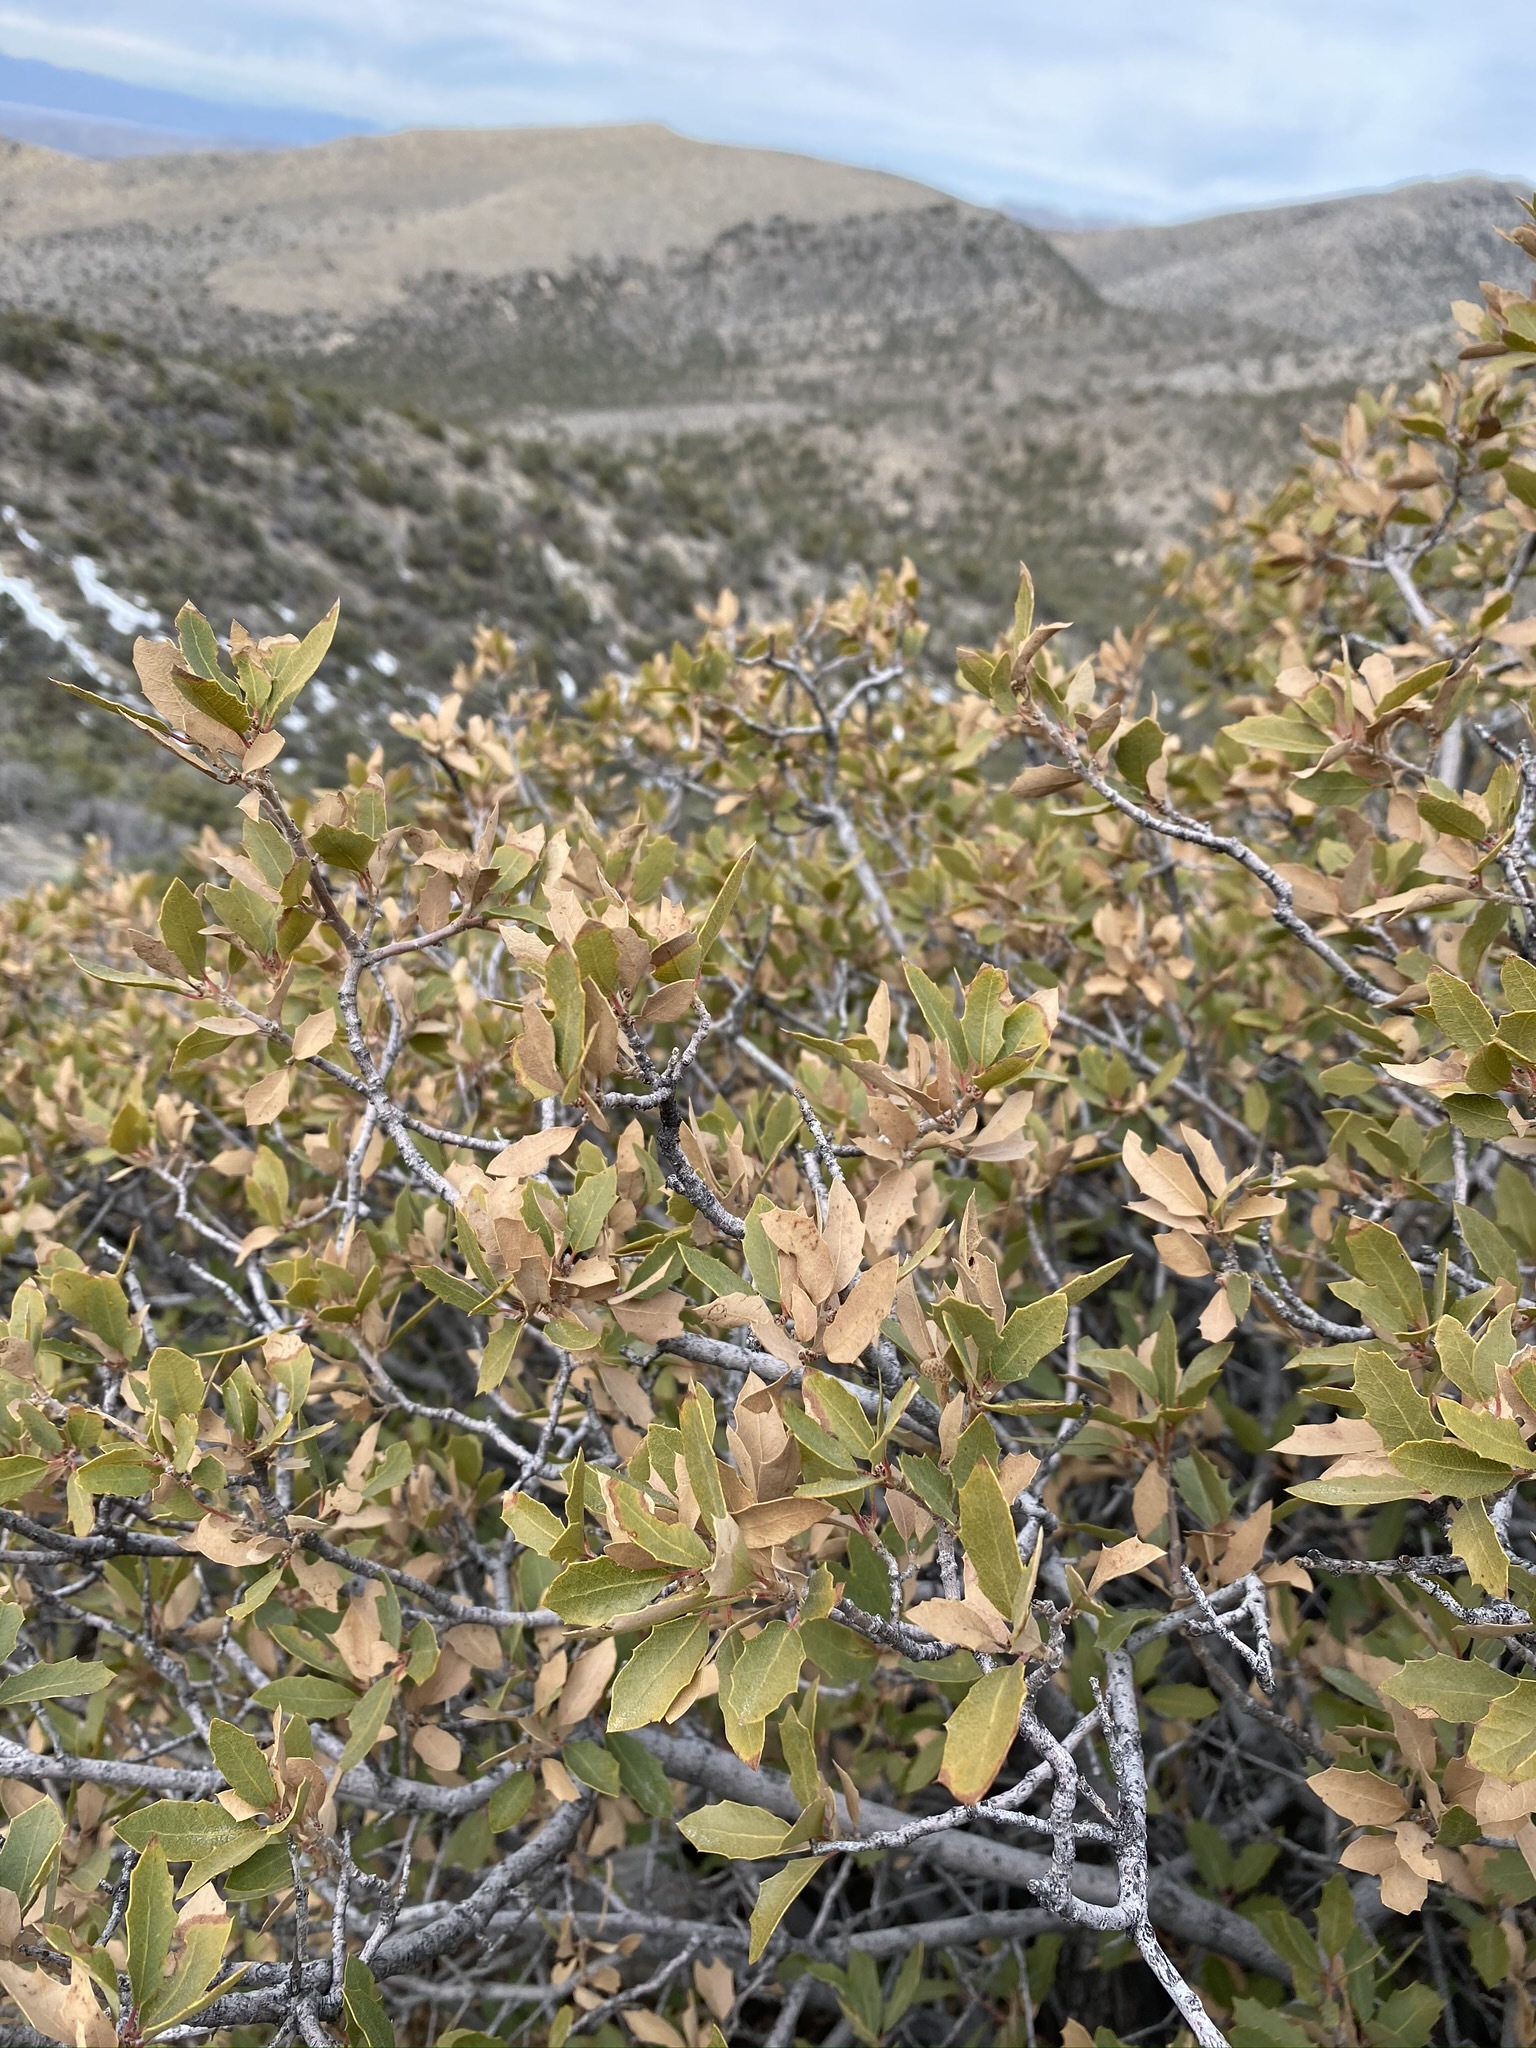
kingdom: Plantae
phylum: Tracheophyta
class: Magnoliopsida
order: Fagales
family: Fagaceae
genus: Quercus
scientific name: Quercus turbinella
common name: Sonoran scrub oak
